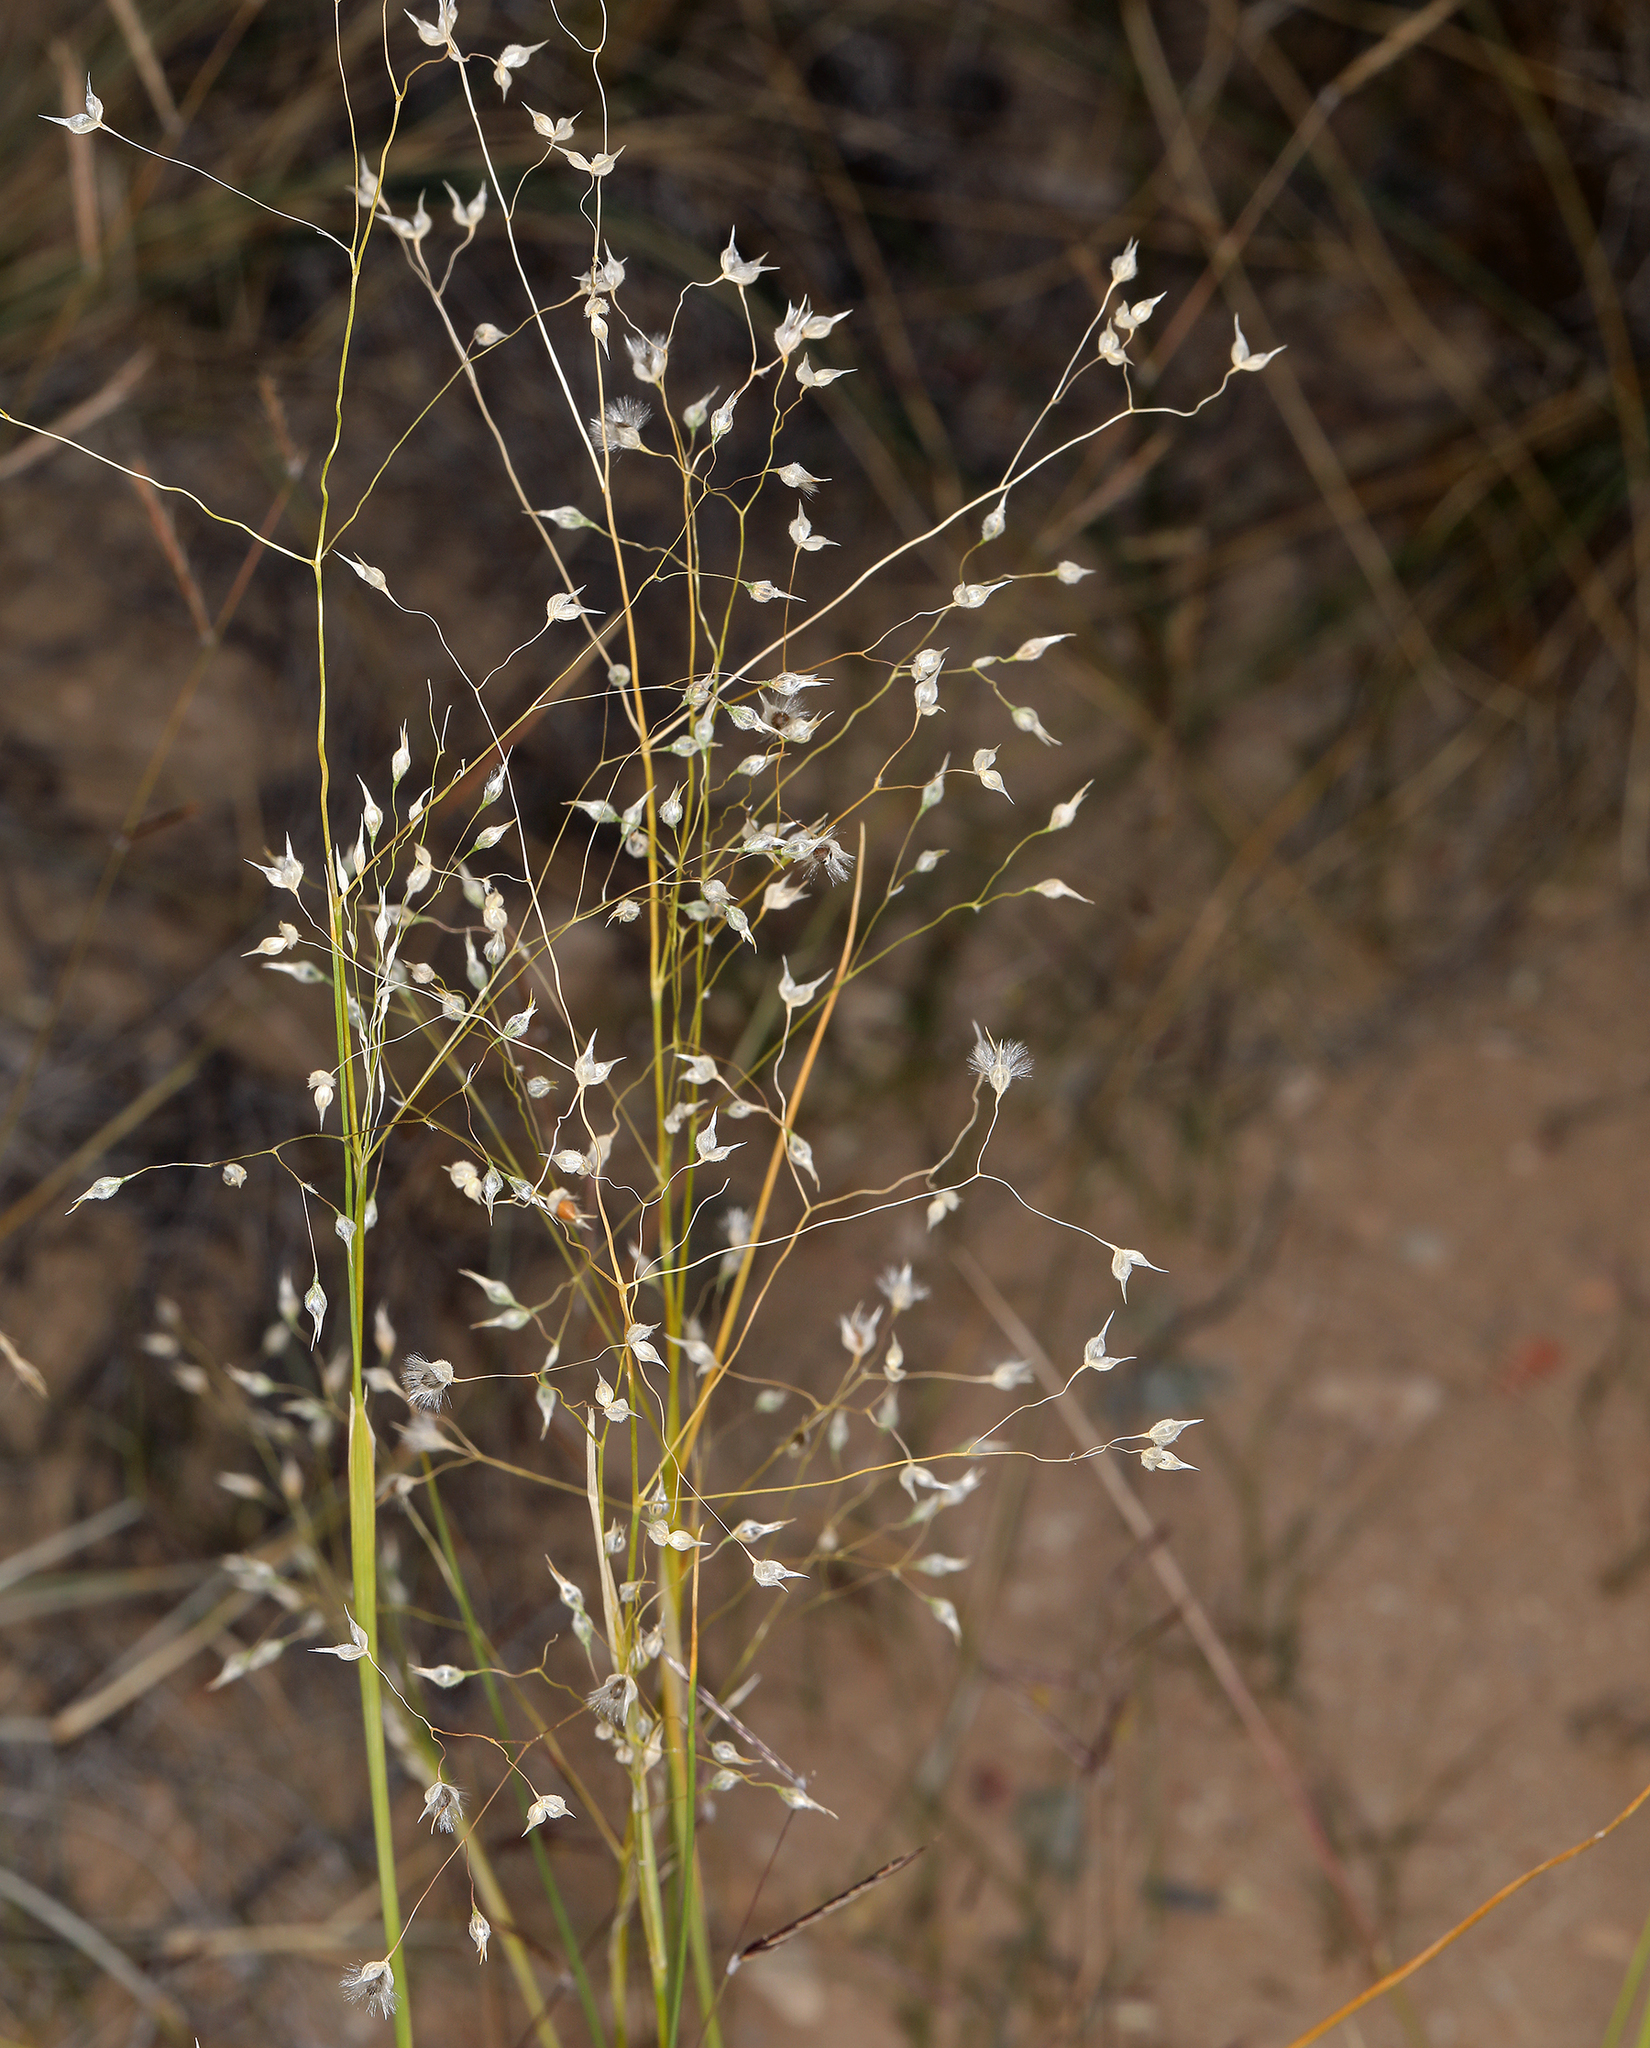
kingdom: Plantae
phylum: Tracheophyta
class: Liliopsida
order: Poales
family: Poaceae
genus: Eriocoma
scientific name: Eriocoma hymenoides
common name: Indian mountain ricegrass
